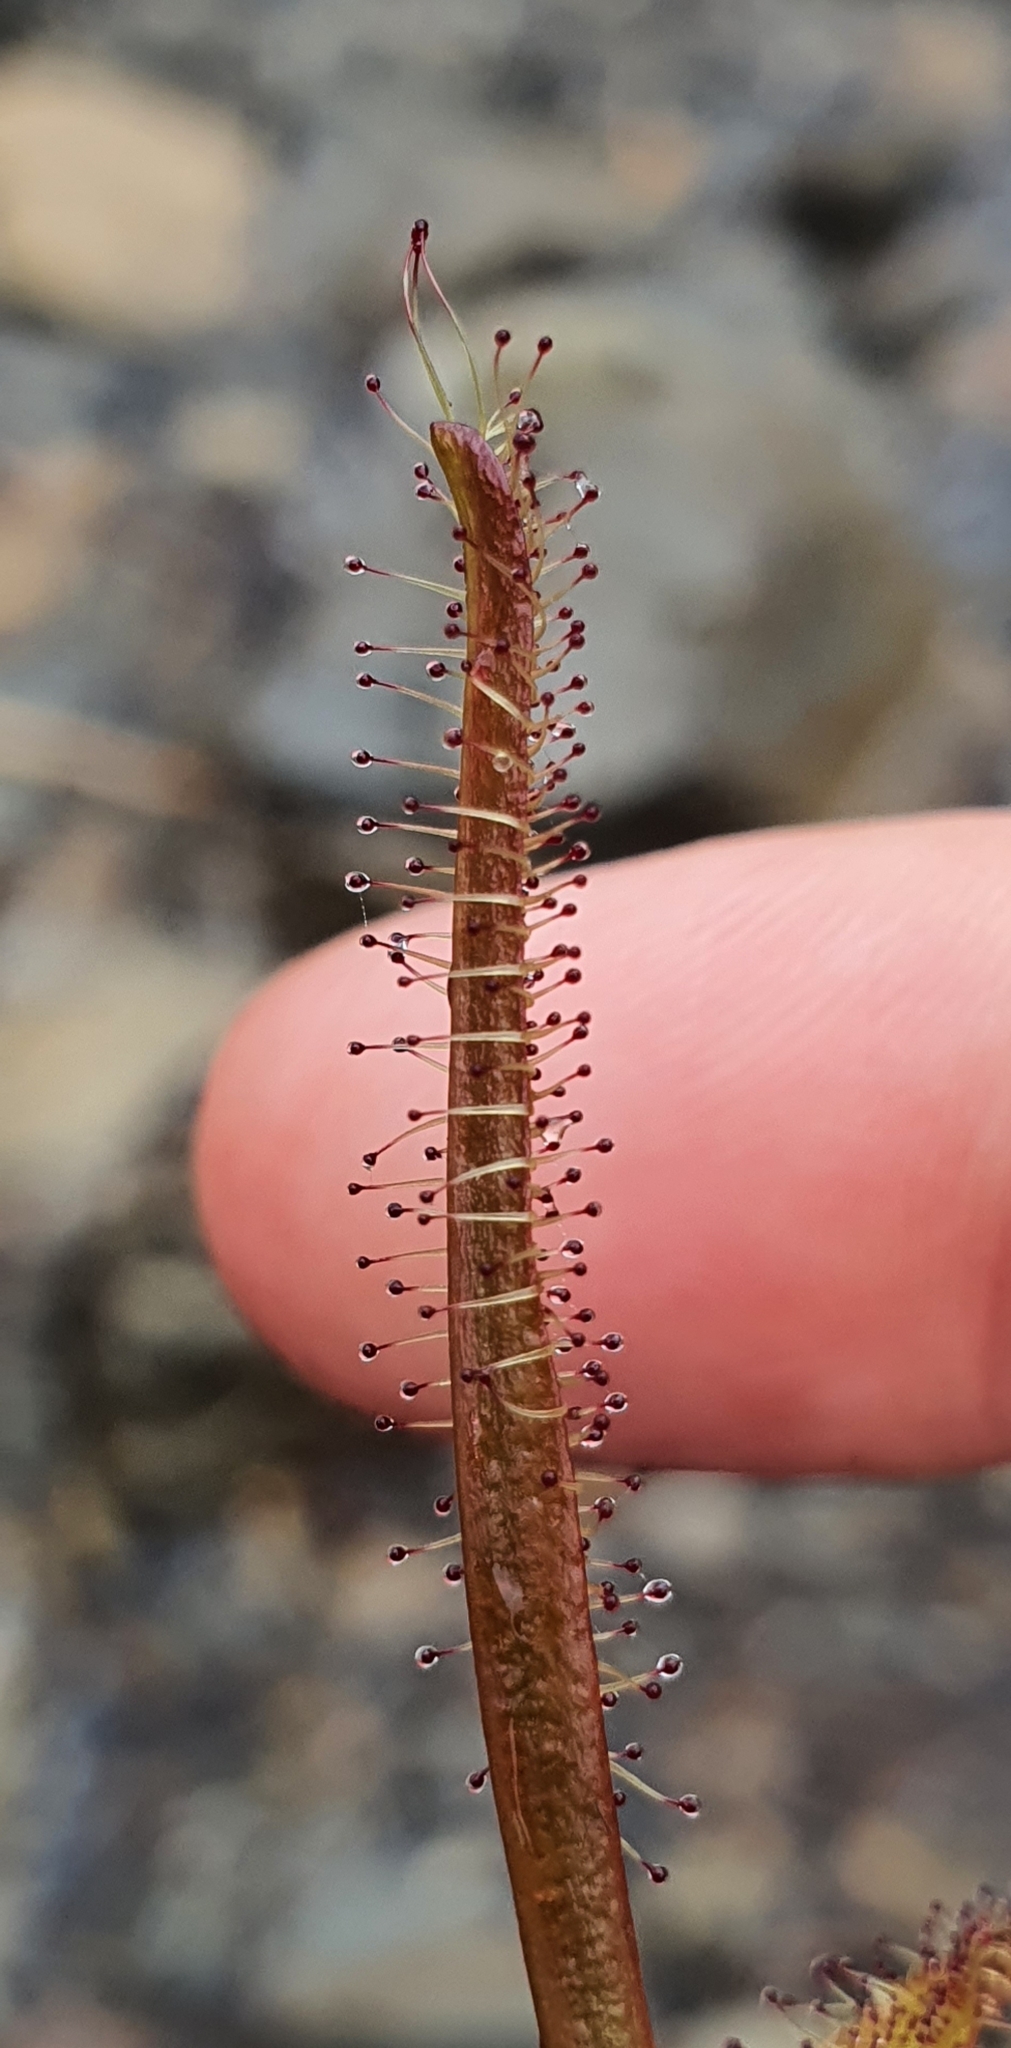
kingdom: Plantae
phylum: Tracheophyta
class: Magnoliopsida
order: Caryophyllales
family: Droseraceae
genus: Drosera
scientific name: Drosera arcturi
